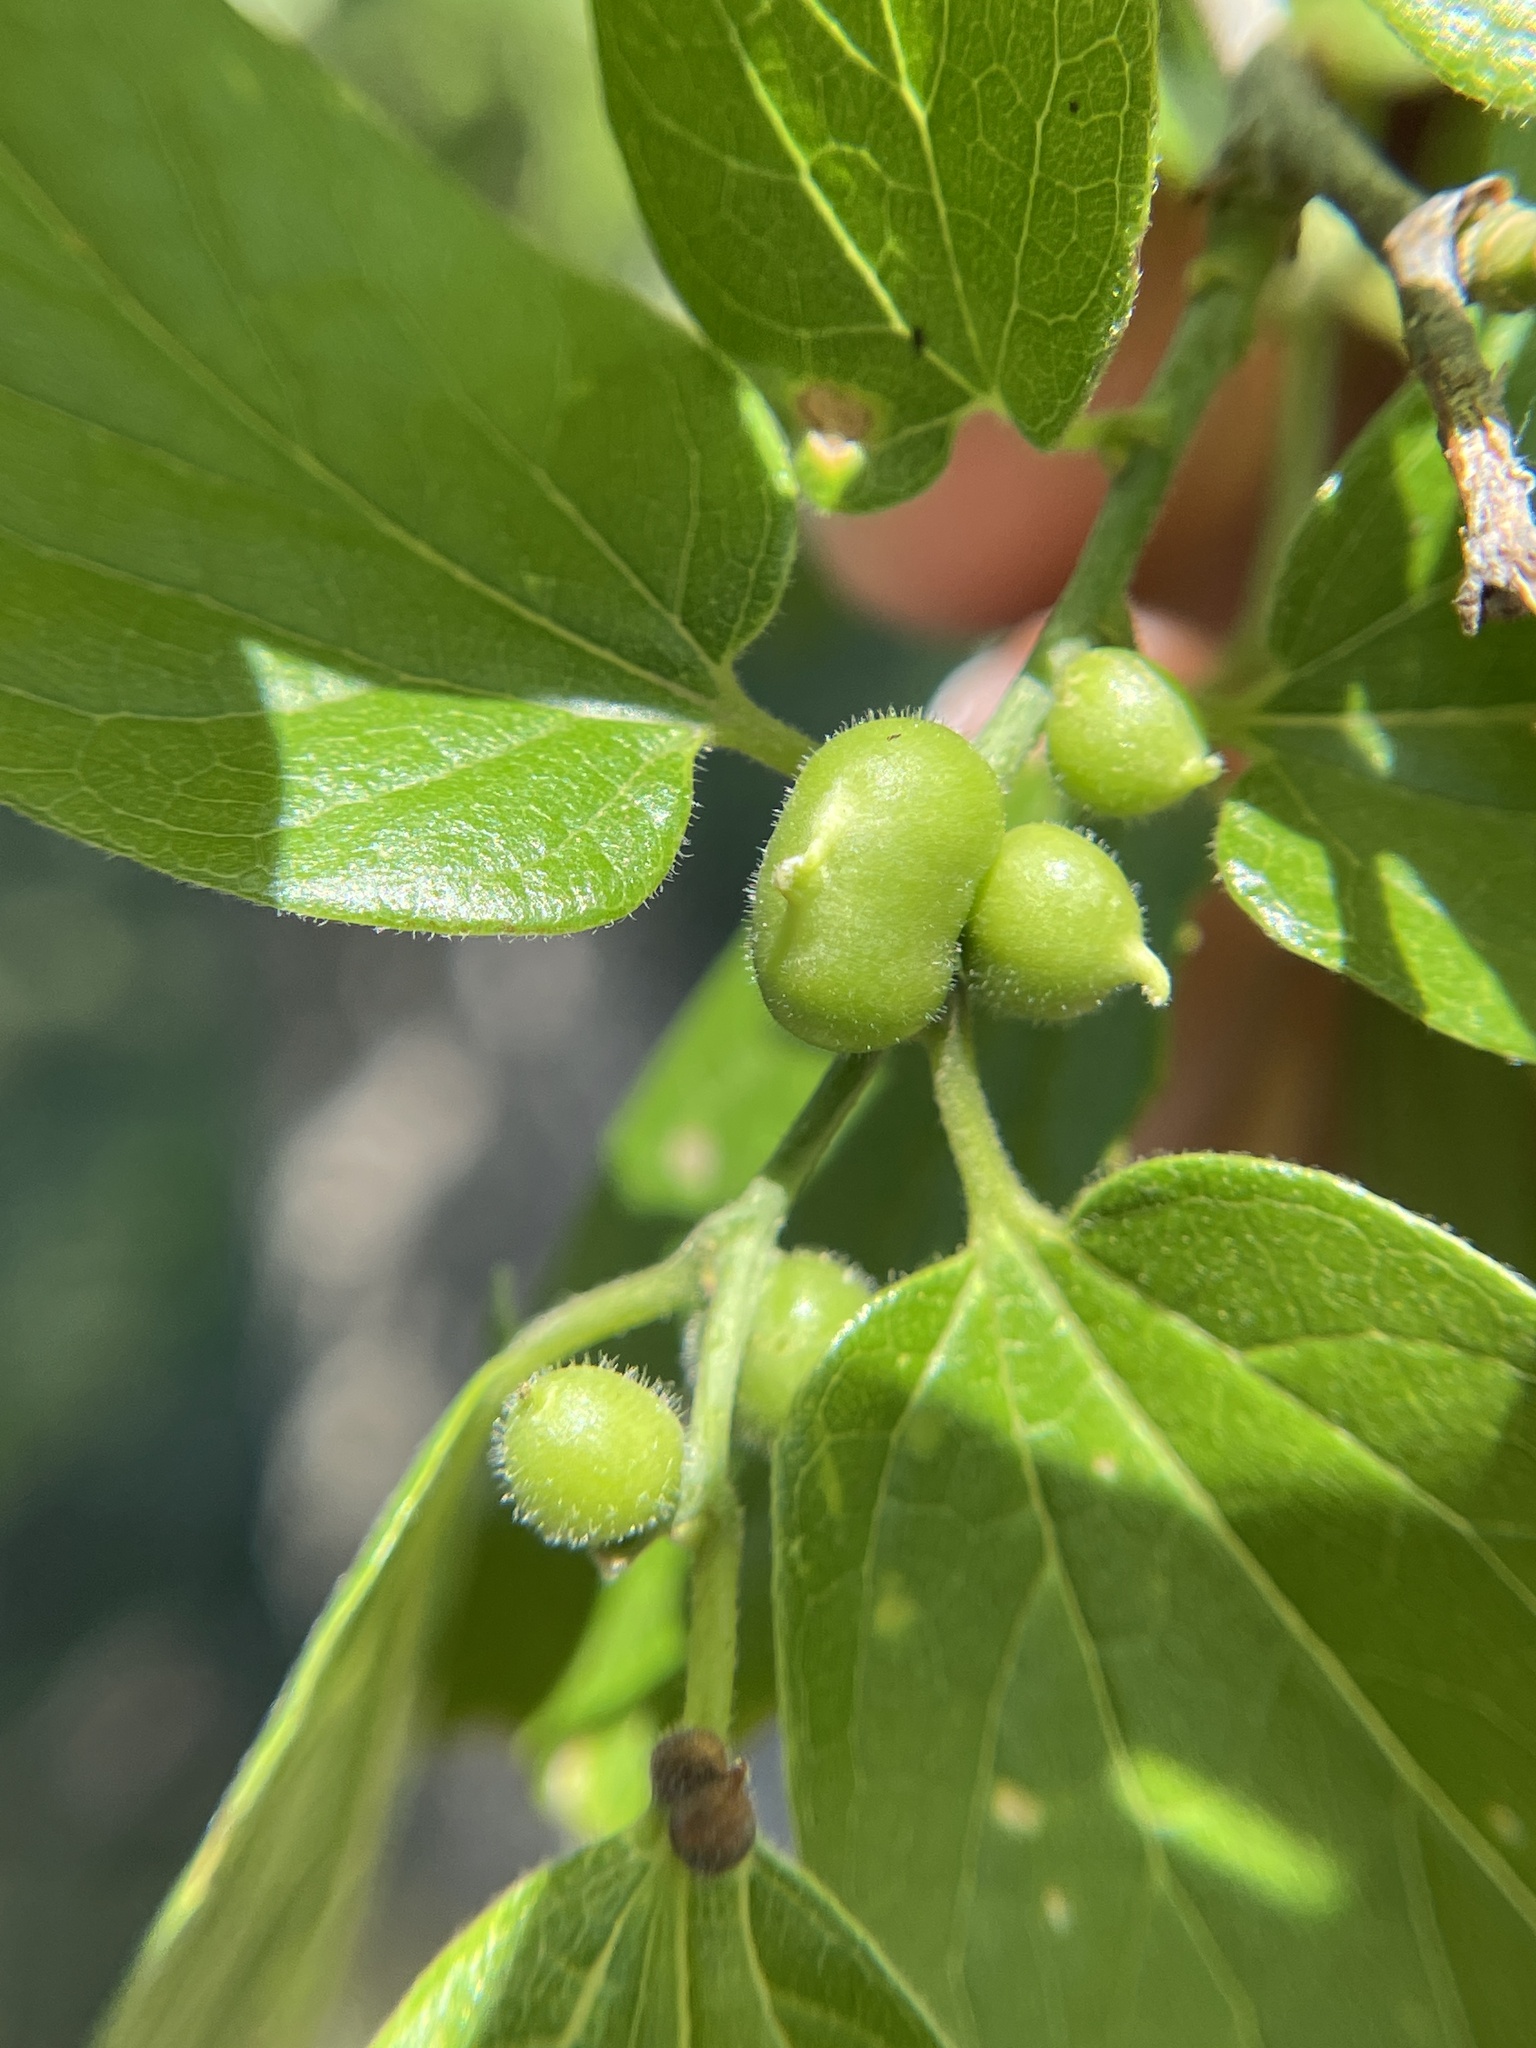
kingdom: Animalia
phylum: Arthropoda
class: Insecta
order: Diptera
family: Cecidomyiidae
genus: Celticecis
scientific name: Celticecis connata
